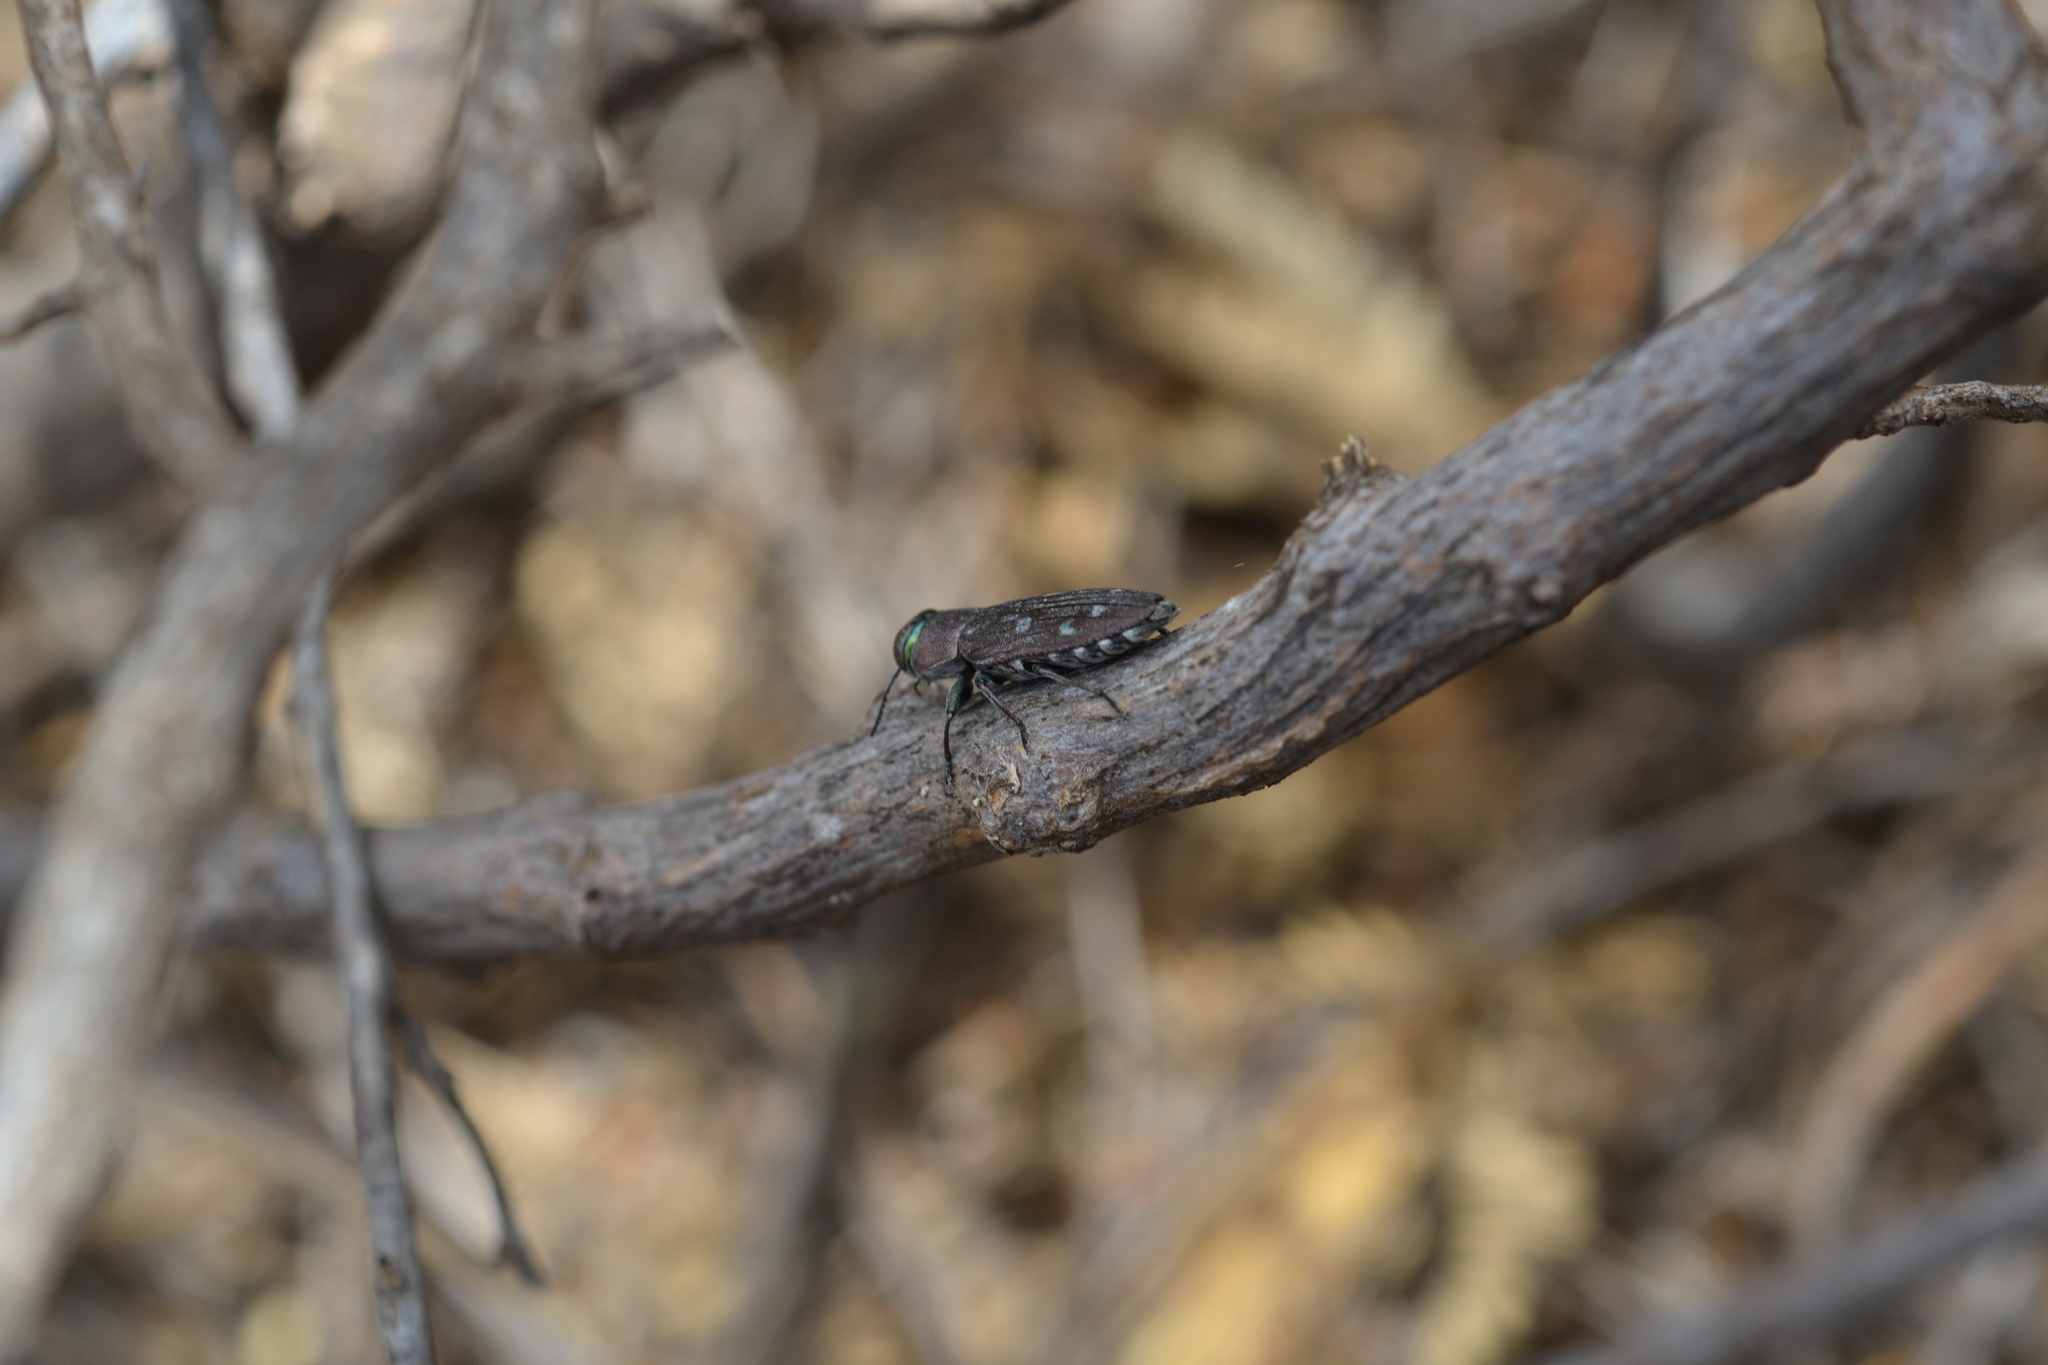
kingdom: Animalia
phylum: Arthropoda
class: Insecta
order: Coleoptera
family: Buprestidae
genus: Chrysobothris
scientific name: Chrysobothris octocola
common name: Jewel beetle
